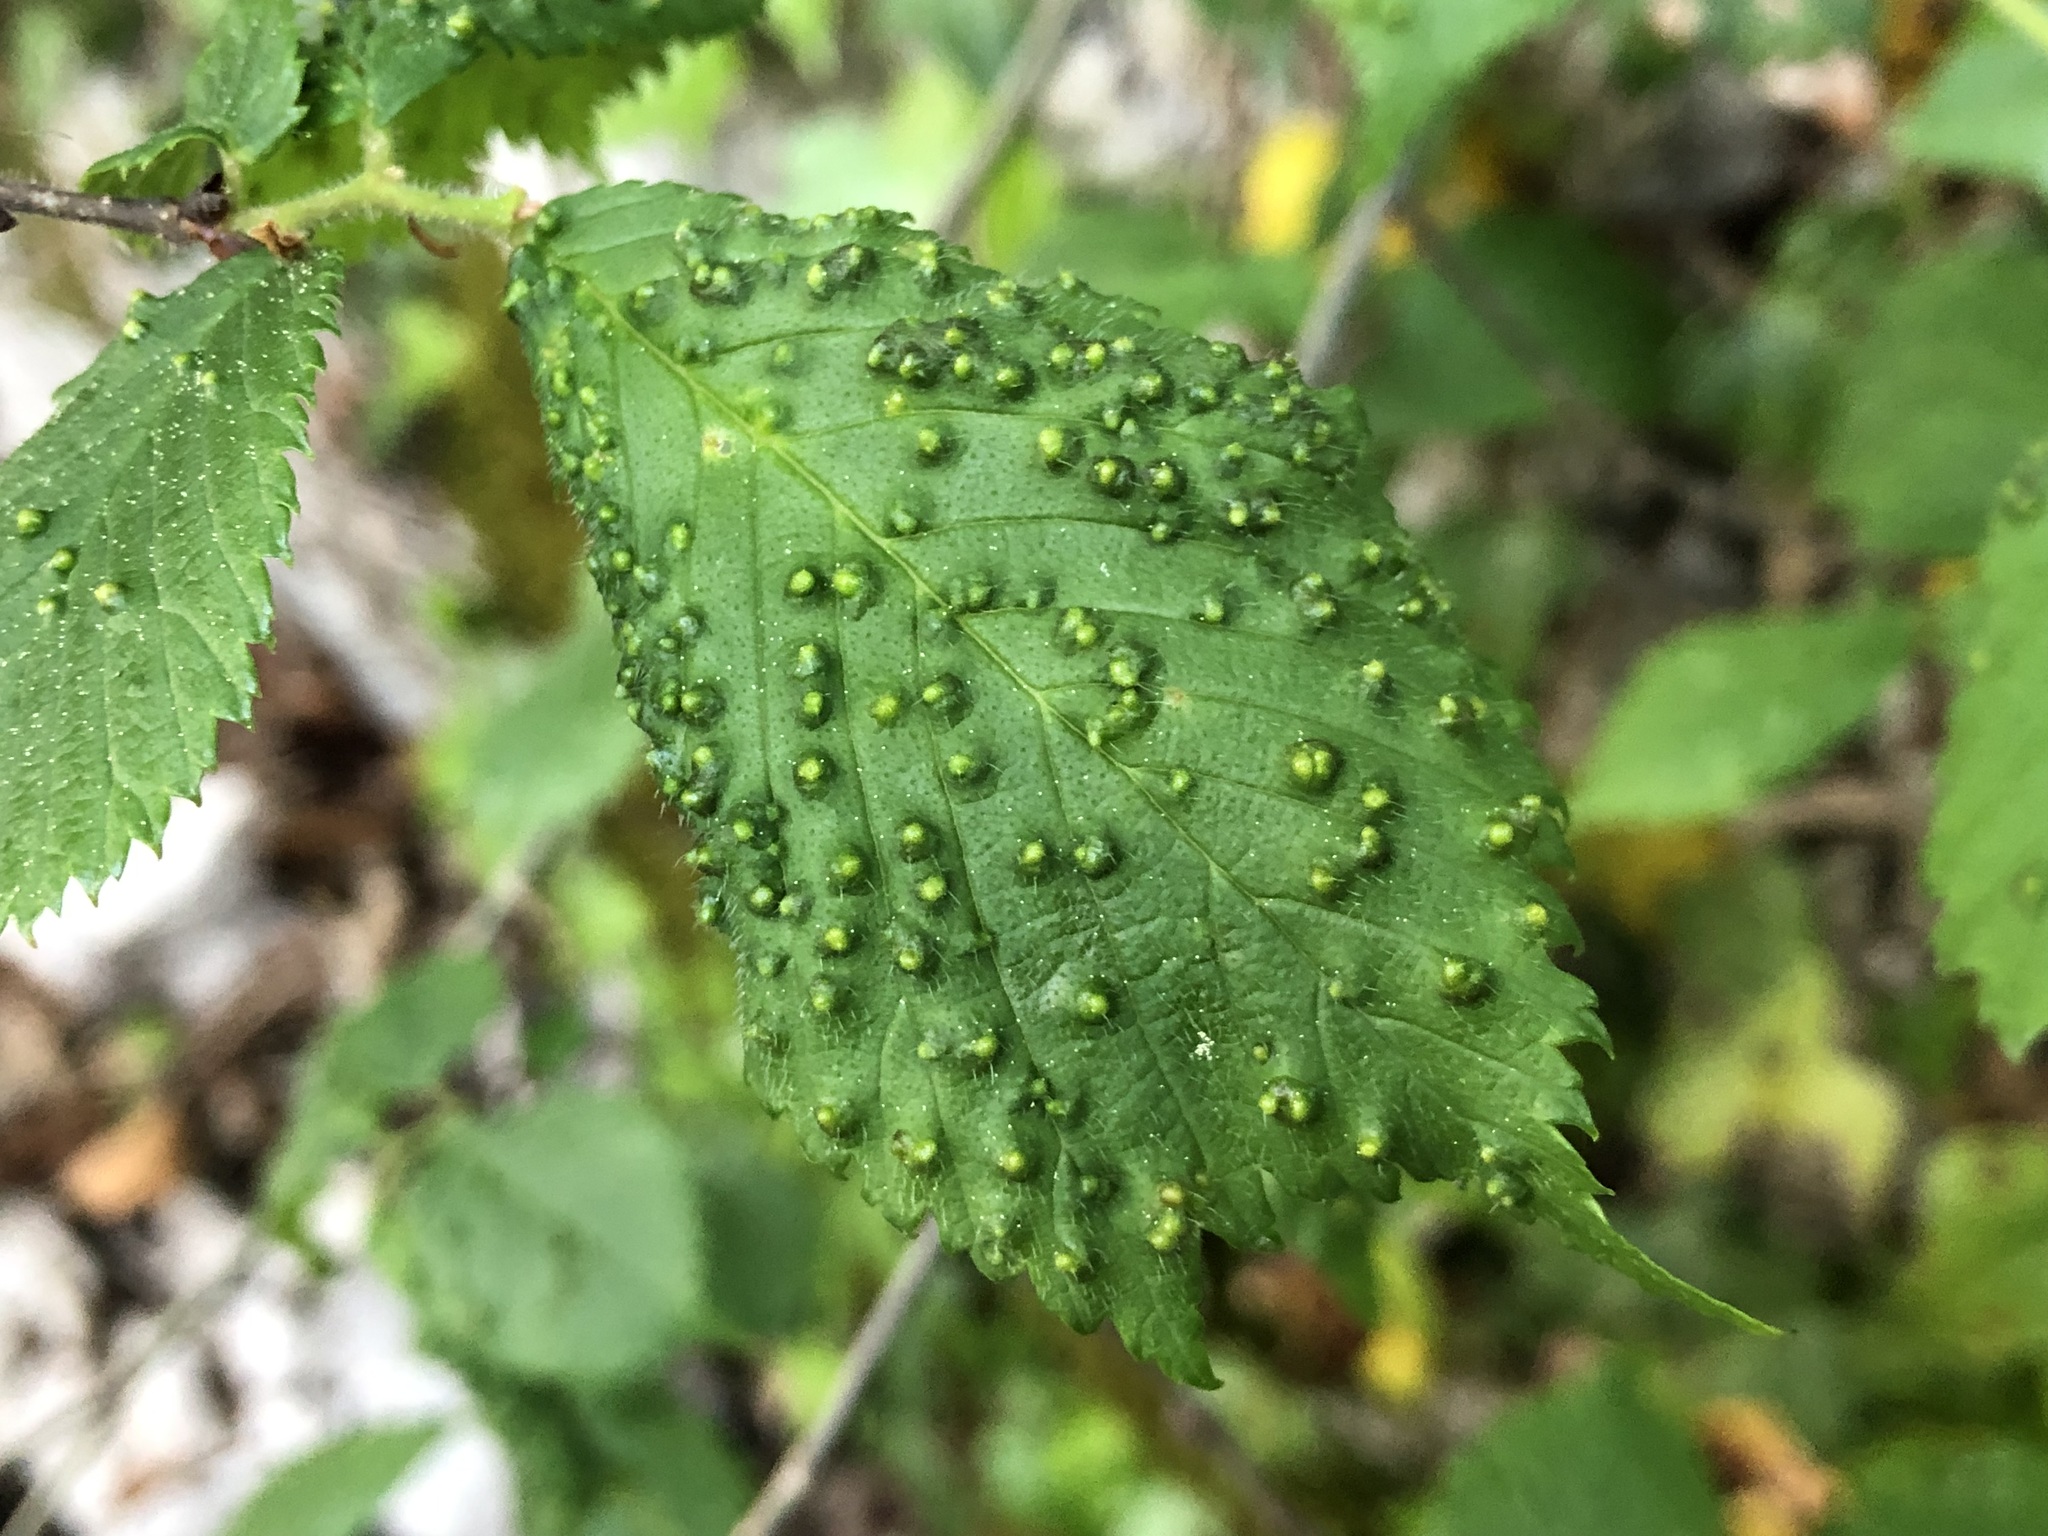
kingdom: Animalia
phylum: Arthropoda
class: Arachnida
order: Trombidiformes
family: Eriophyidae
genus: Aceria
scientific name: Aceria brevipunctata
